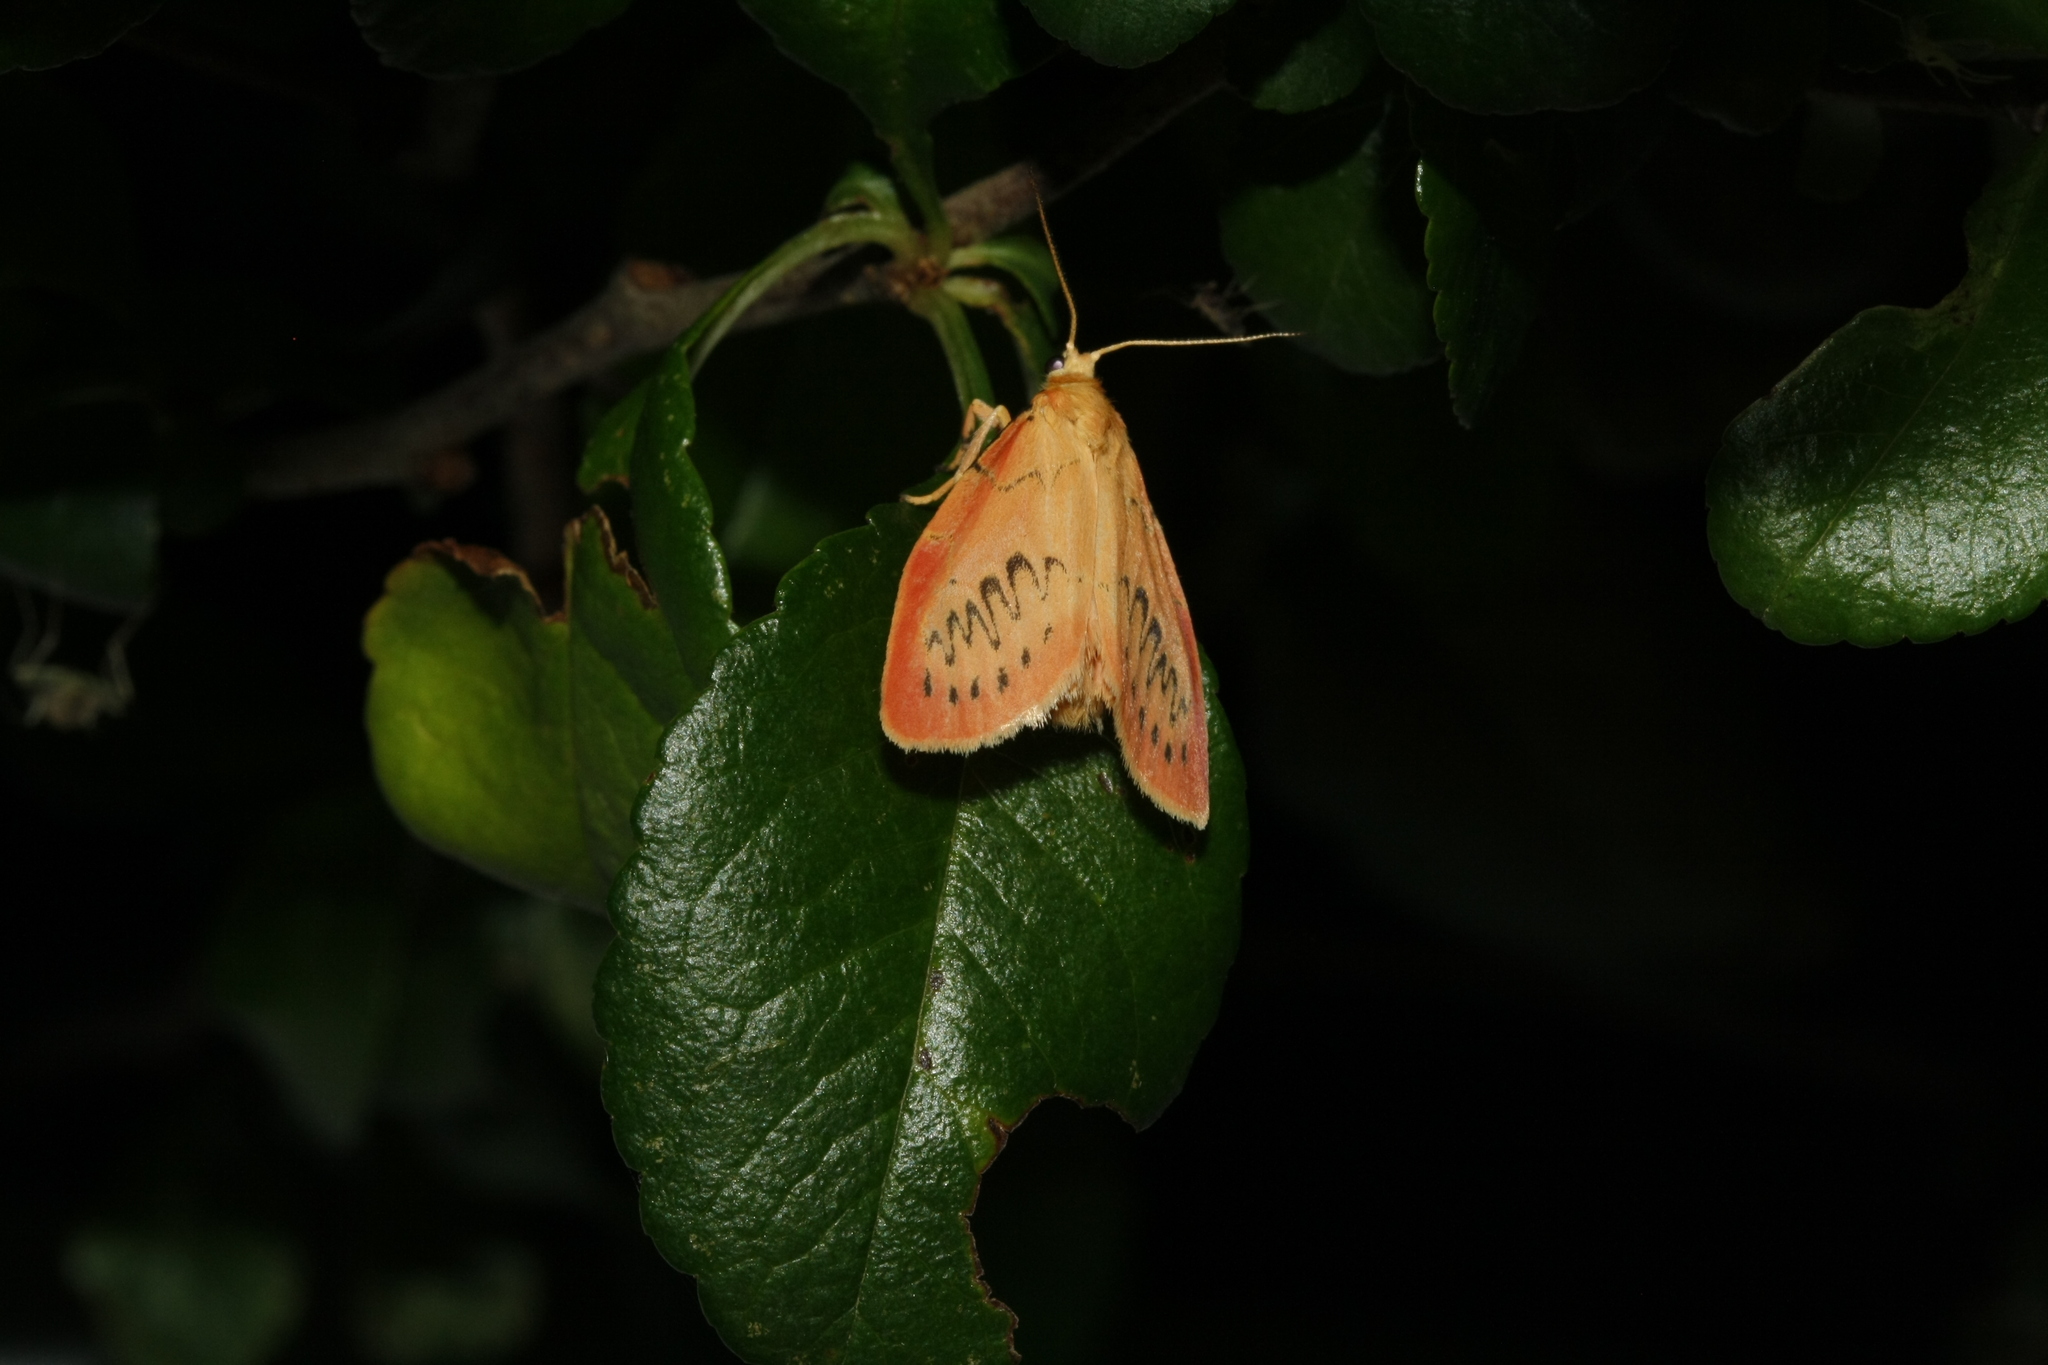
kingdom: Animalia
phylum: Arthropoda
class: Insecta
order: Lepidoptera
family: Erebidae
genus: Miltochrista
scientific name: Miltochrista miniata
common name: Rosy footman
